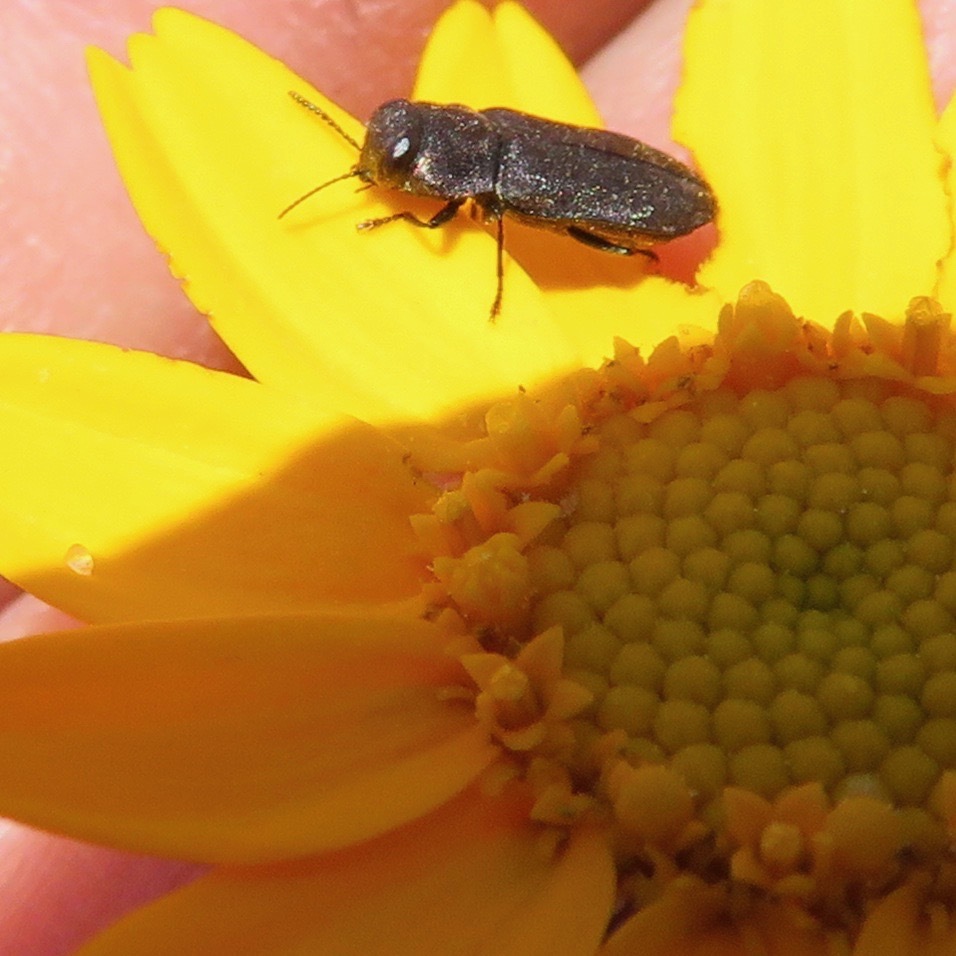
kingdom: Animalia
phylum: Arthropoda
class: Insecta
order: Coleoptera
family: Buprestidae
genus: Anthaxia
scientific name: Anthaxia
